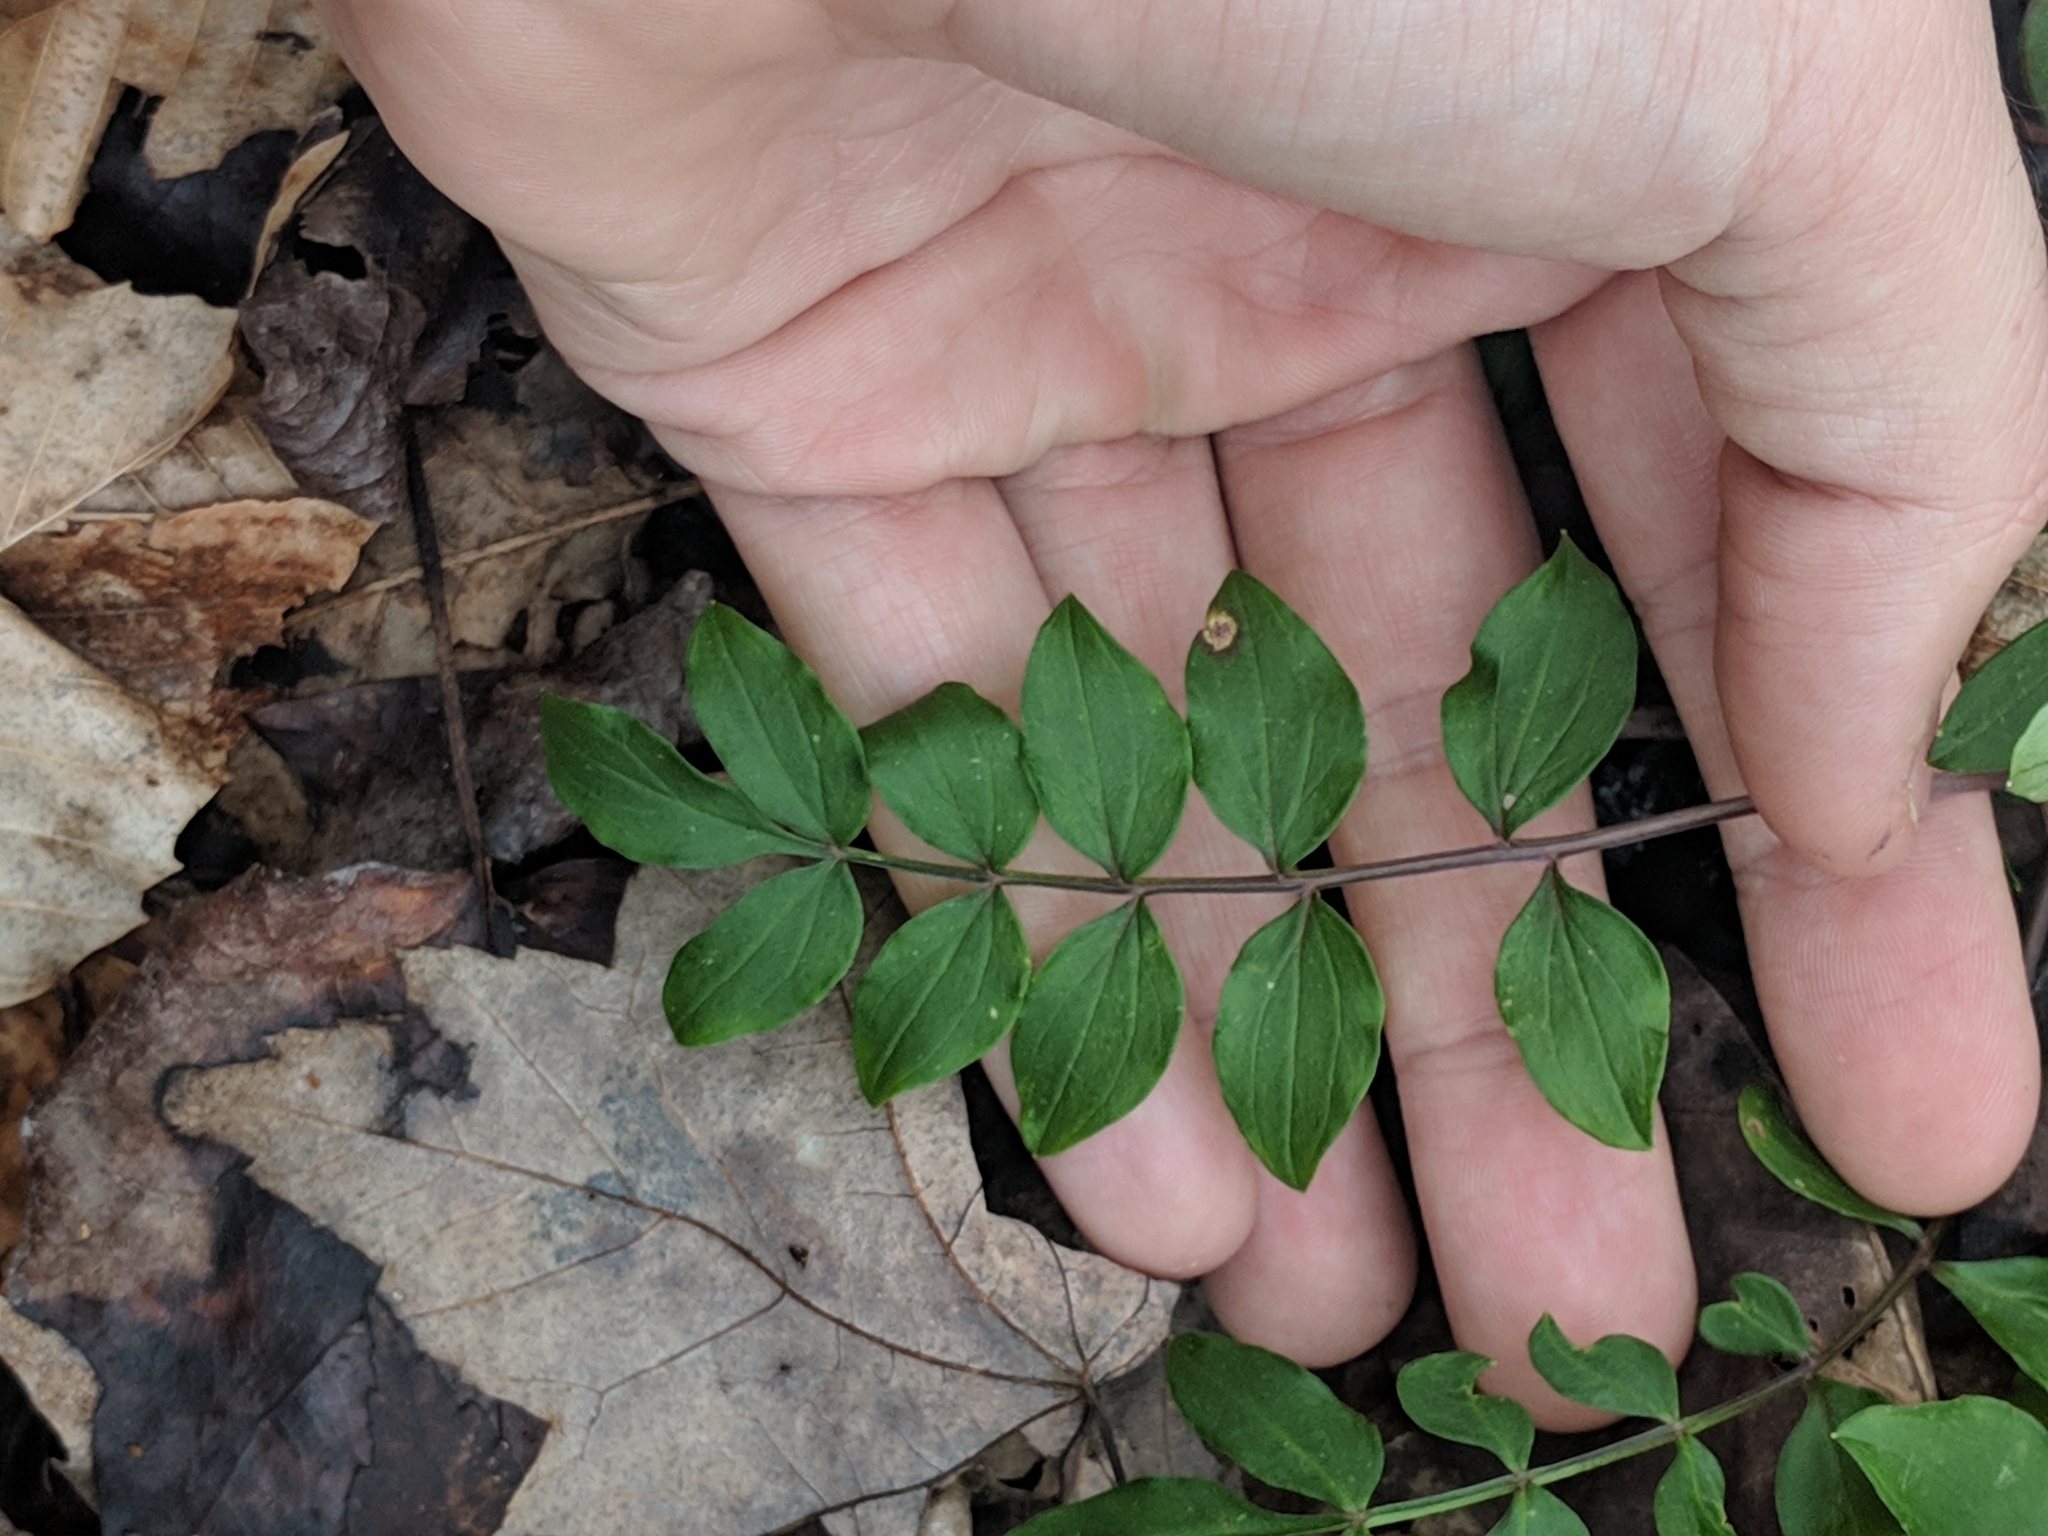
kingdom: Plantae
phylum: Tracheophyta
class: Magnoliopsida
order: Ericales
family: Polemoniaceae
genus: Polemonium
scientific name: Polemonium reptans
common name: Creeping jacob's-ladder
